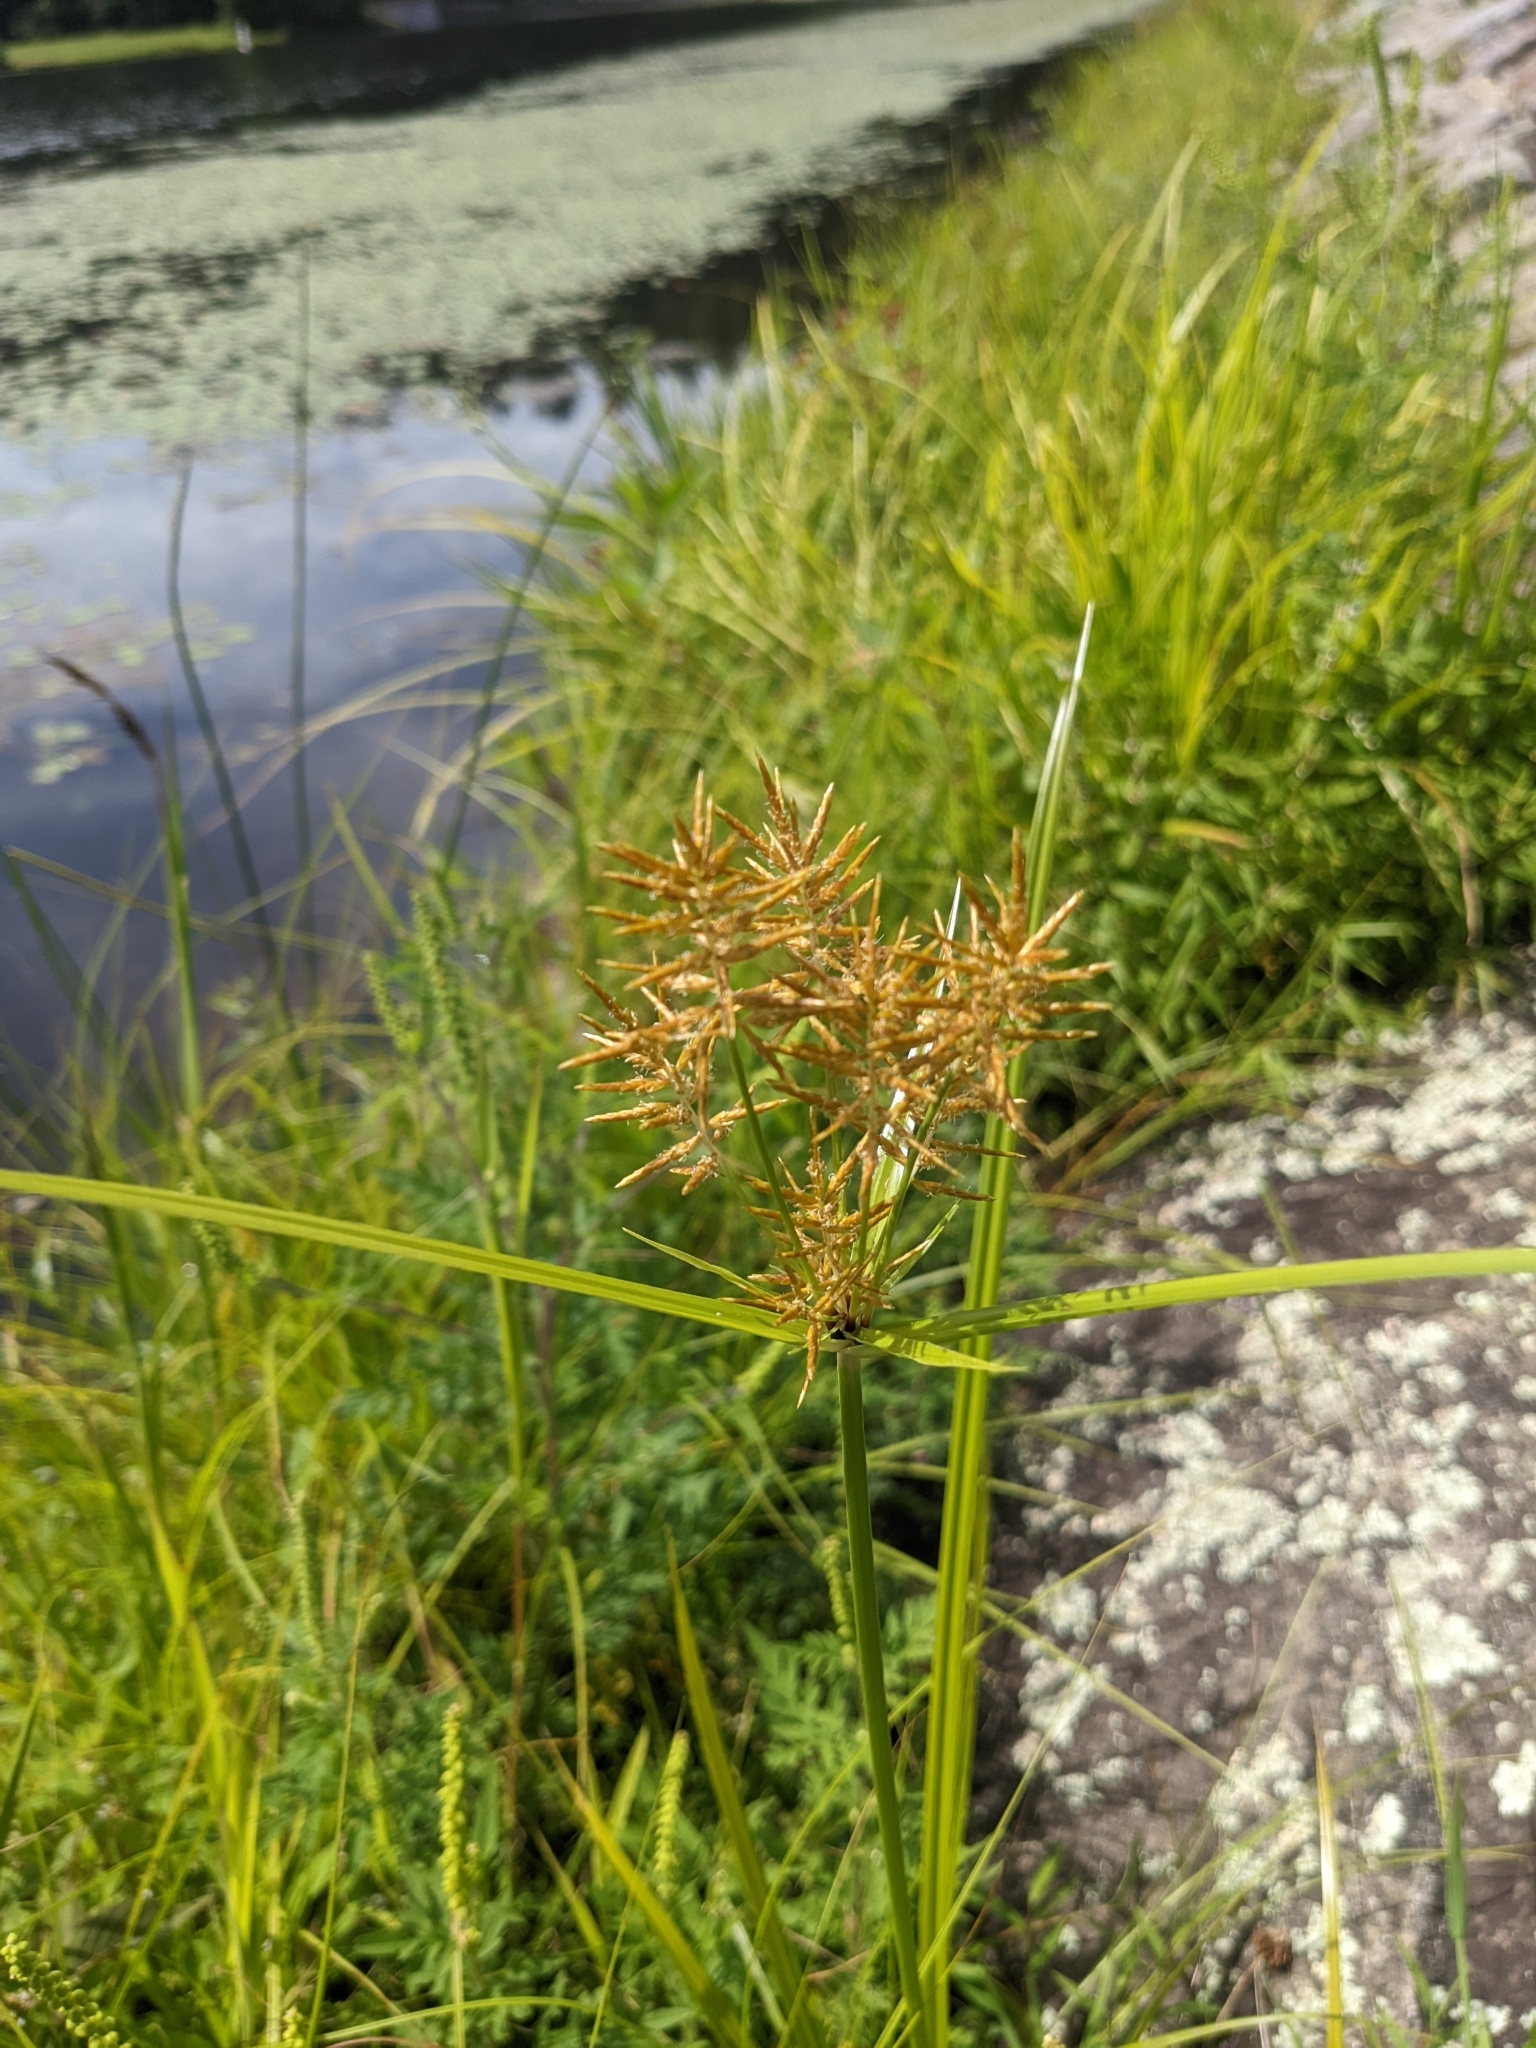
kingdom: Plantae
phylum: Tracheophyta
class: Liliopsida
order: Poales
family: Cyperaceae
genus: Cyperus
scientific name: Cyperus esculentus
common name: Yellow nutsedge
